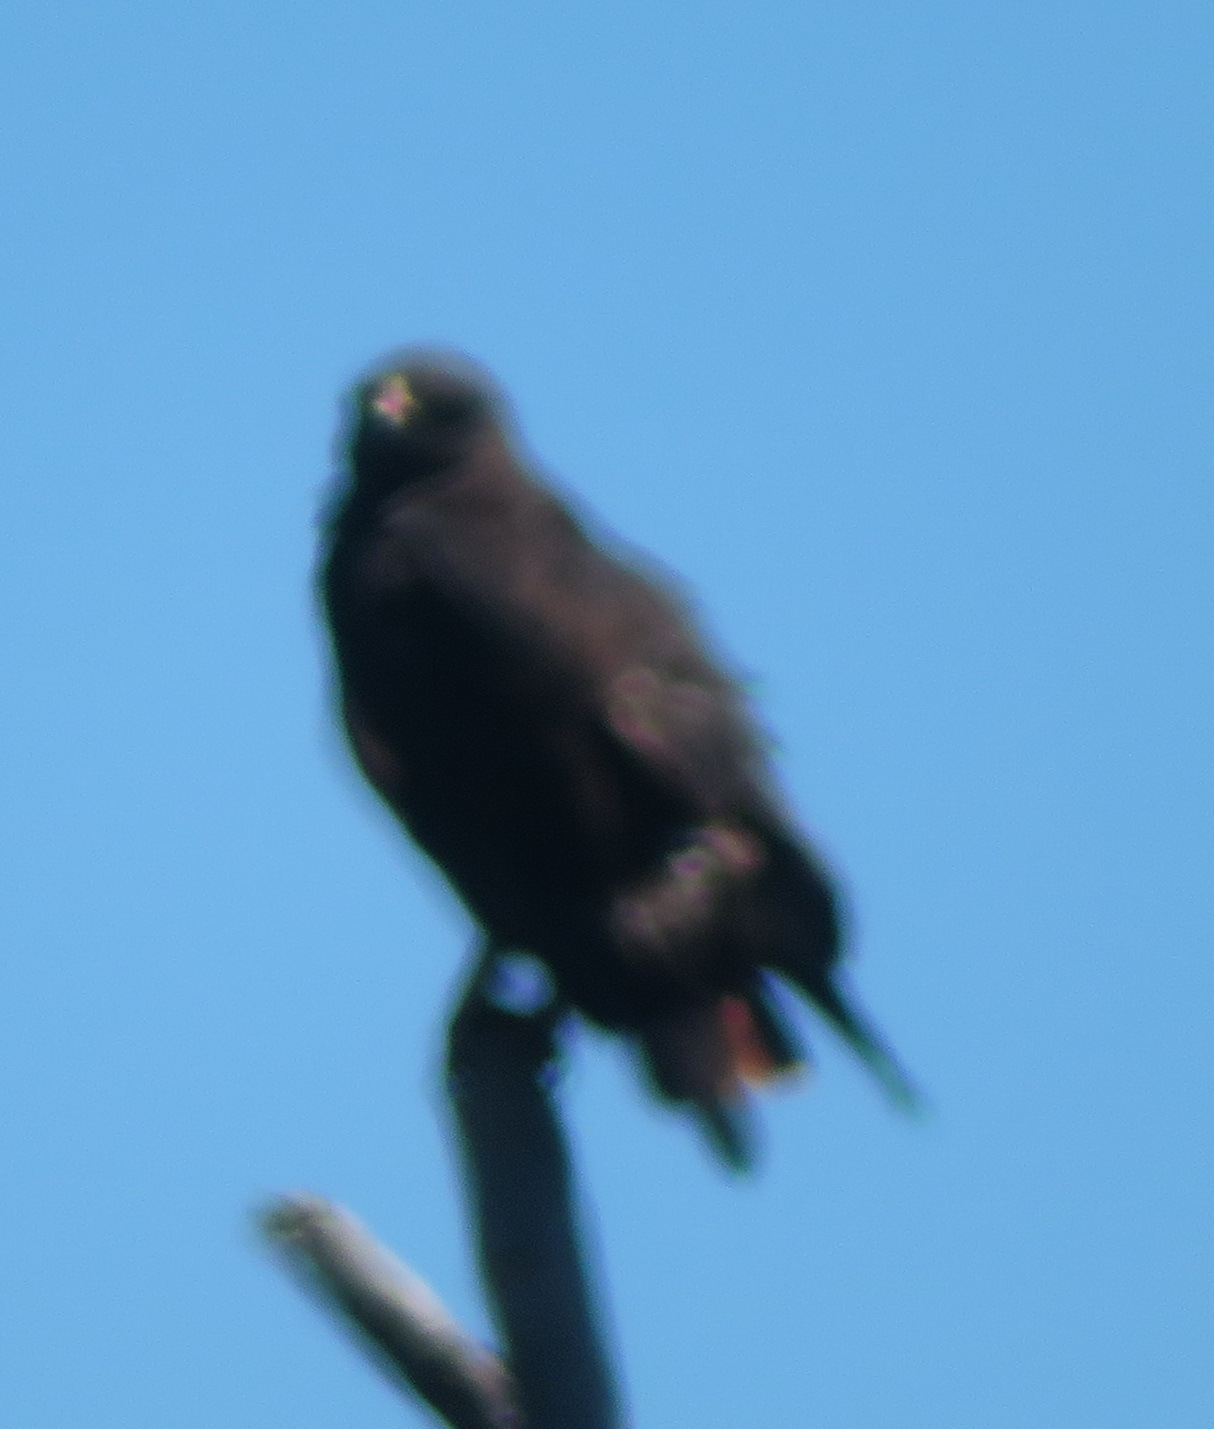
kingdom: Animalia
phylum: Chordata
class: Aves
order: Accipitriformes
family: Accipitridae
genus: Buteo
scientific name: Buteo rufofuscus
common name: Jackal buzzard
